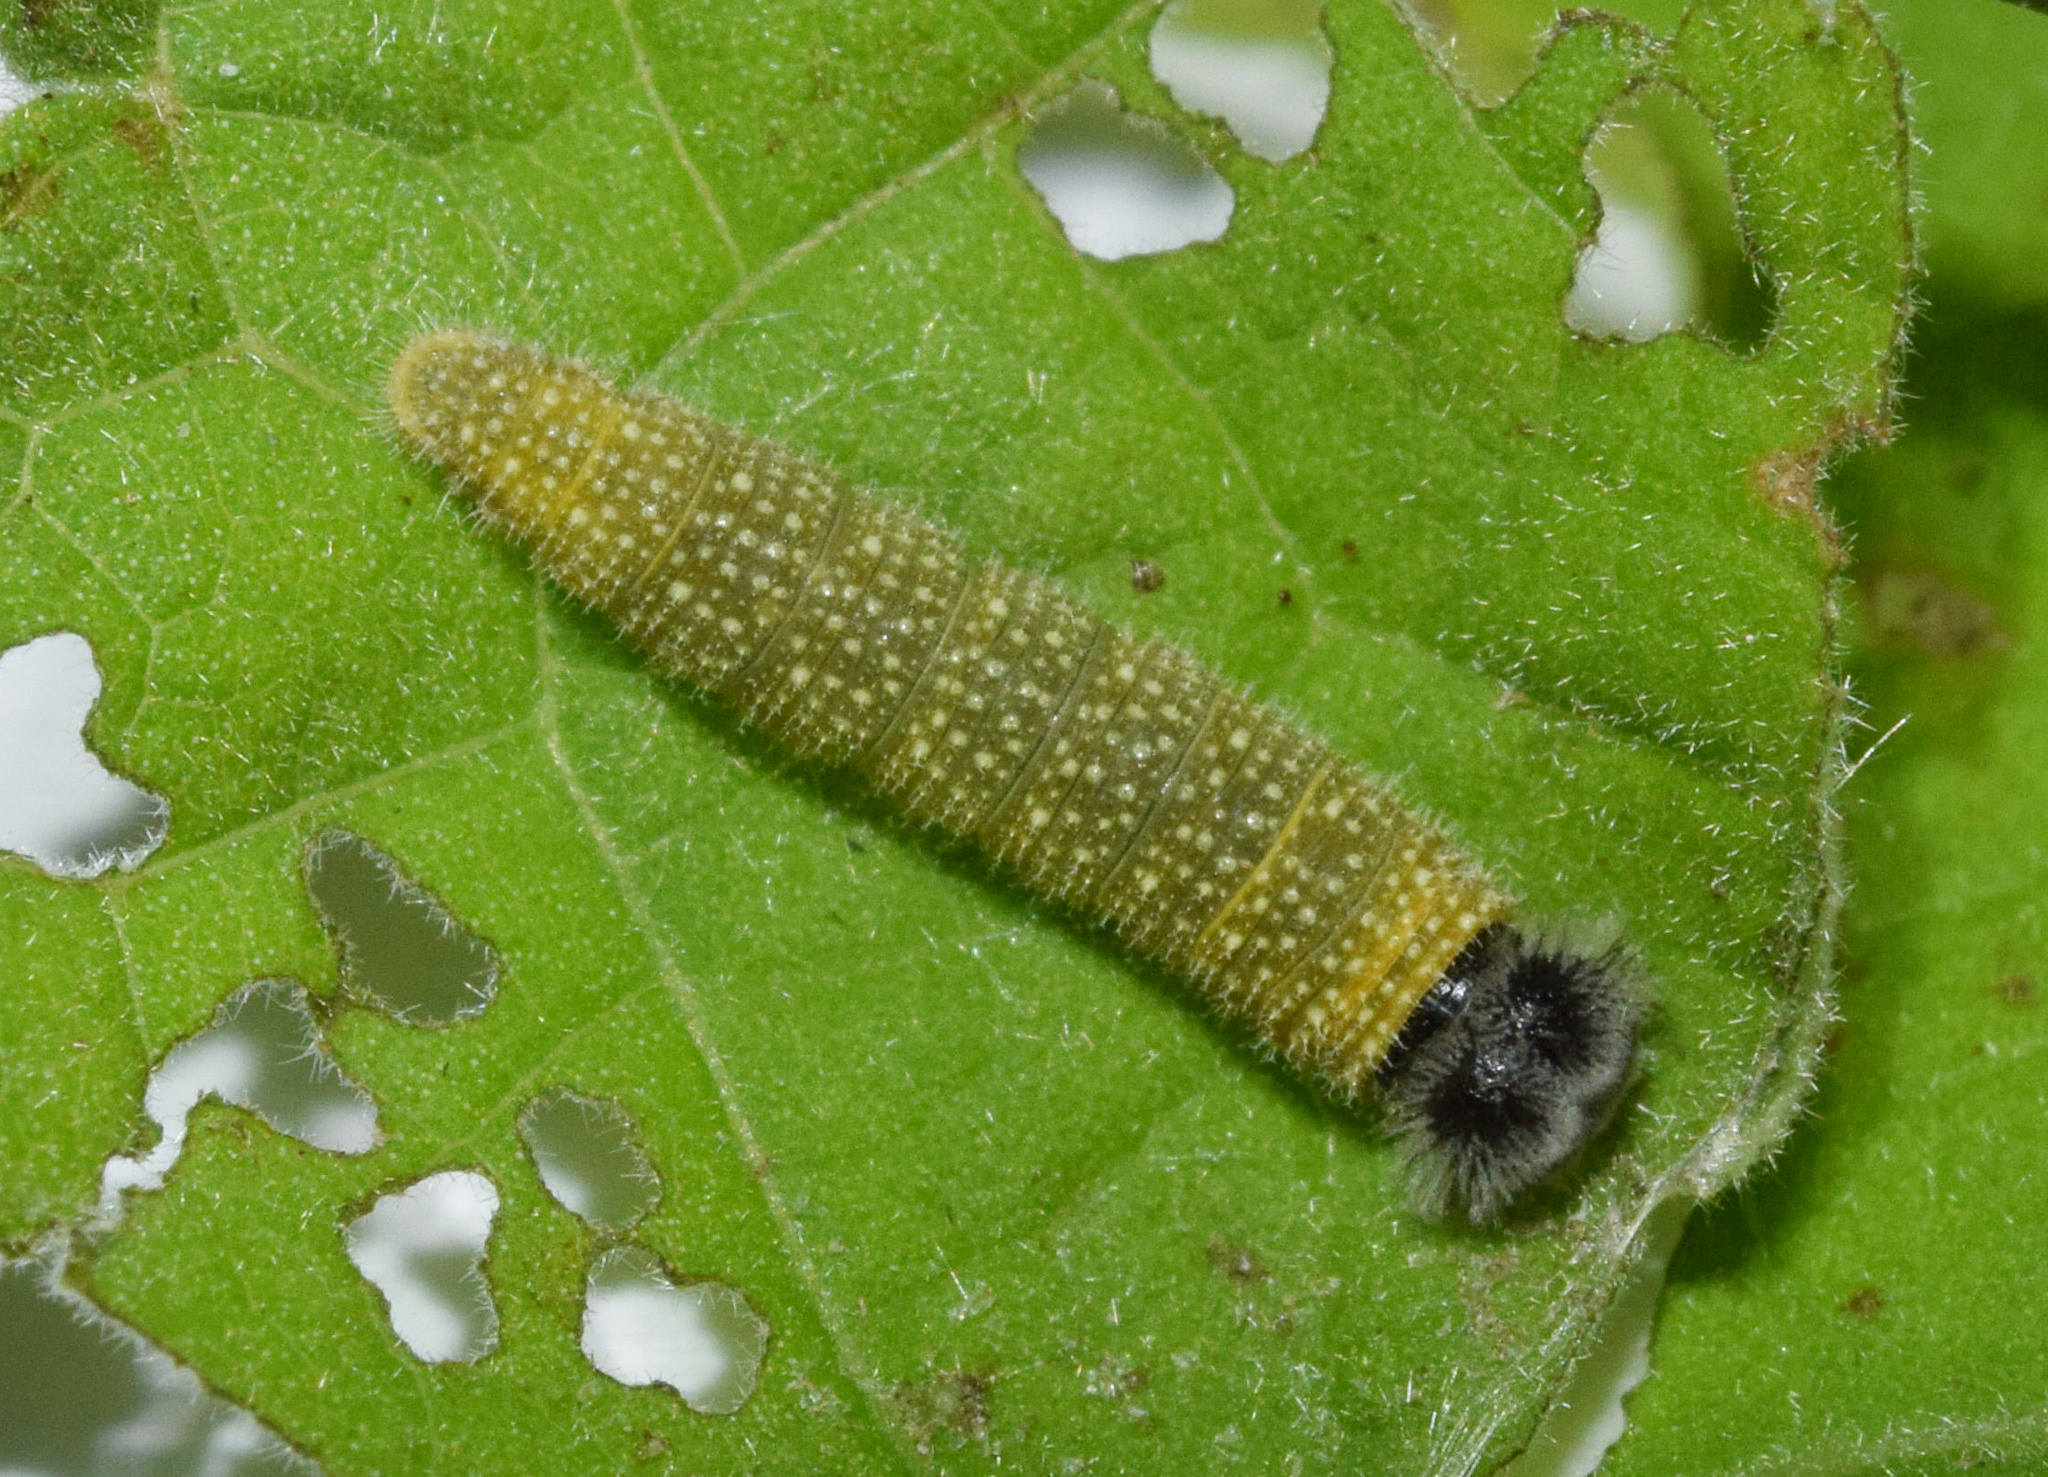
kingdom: Animalia
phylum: Arthropoda
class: Insecta
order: Lepidoptera
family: Hesperiidae
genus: Abantis
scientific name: Abantis
